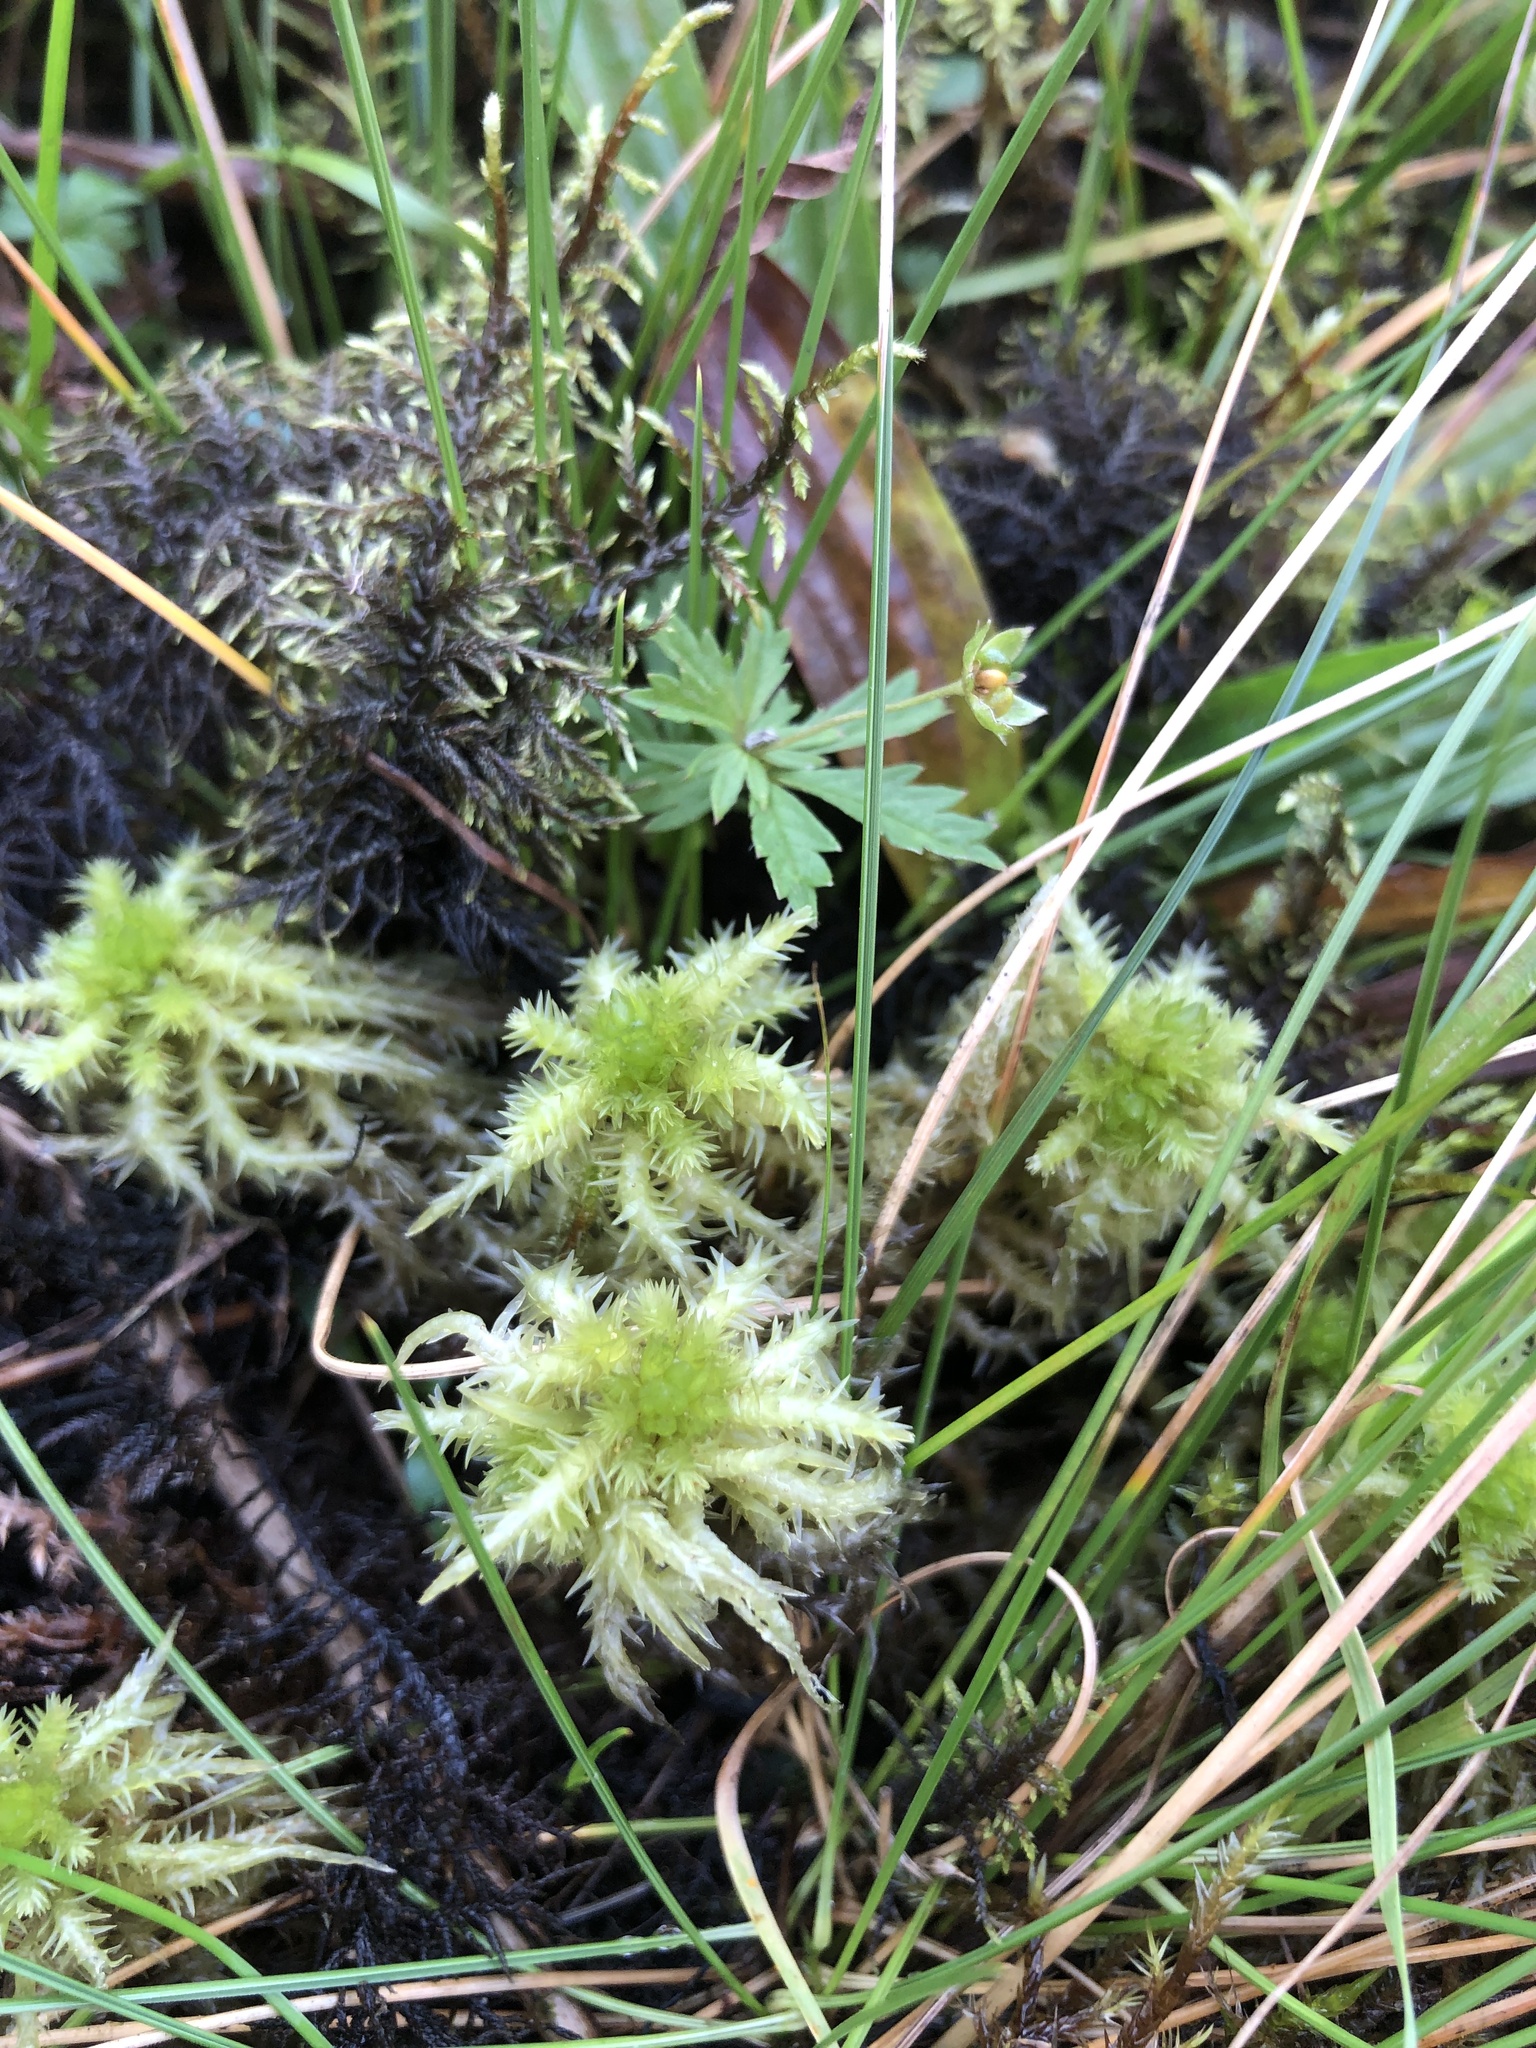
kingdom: Plantae
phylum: Bryophyta
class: Sphagnopsida
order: Sphagnales
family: Sphagnaceae
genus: Sphagnum
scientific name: Sphagnum squarrosum
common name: Shaggy peat moss
